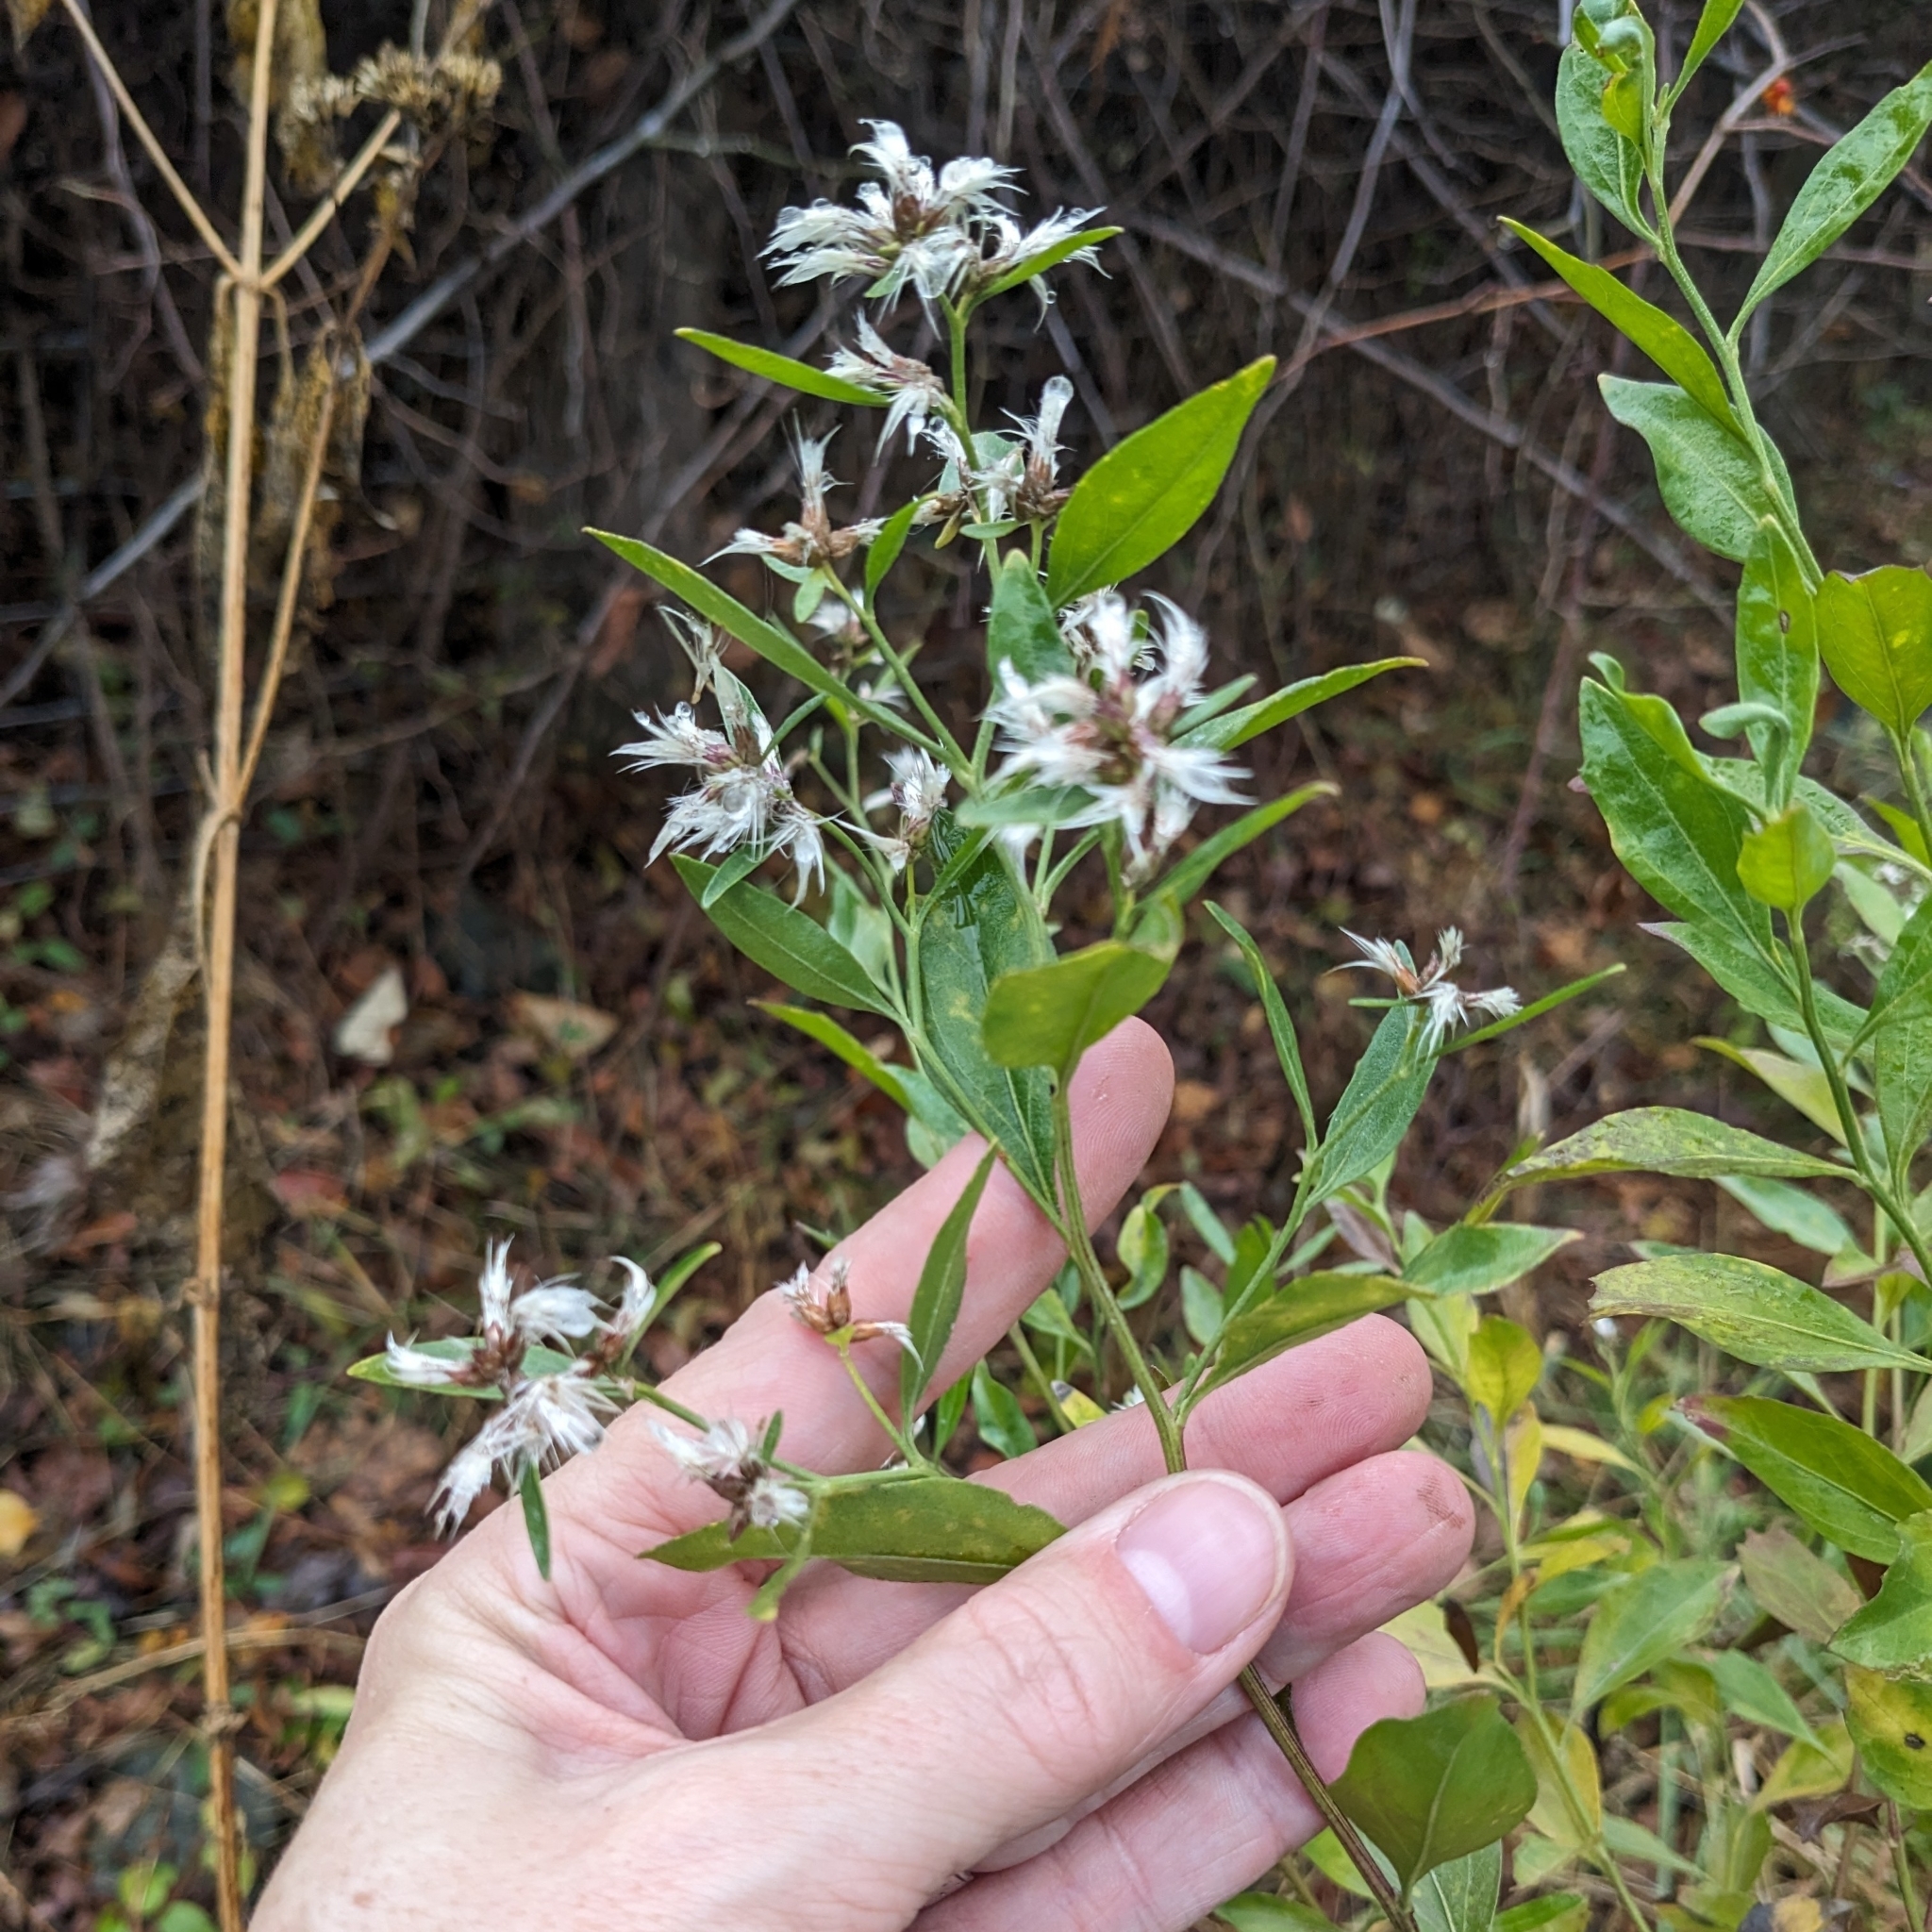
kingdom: Plantae
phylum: Tracheophyta
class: Magnoliopsida
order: Asterales
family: Asteraceae
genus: Baccharis
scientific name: Baccharis halimifolia
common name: Eastern baccharis
